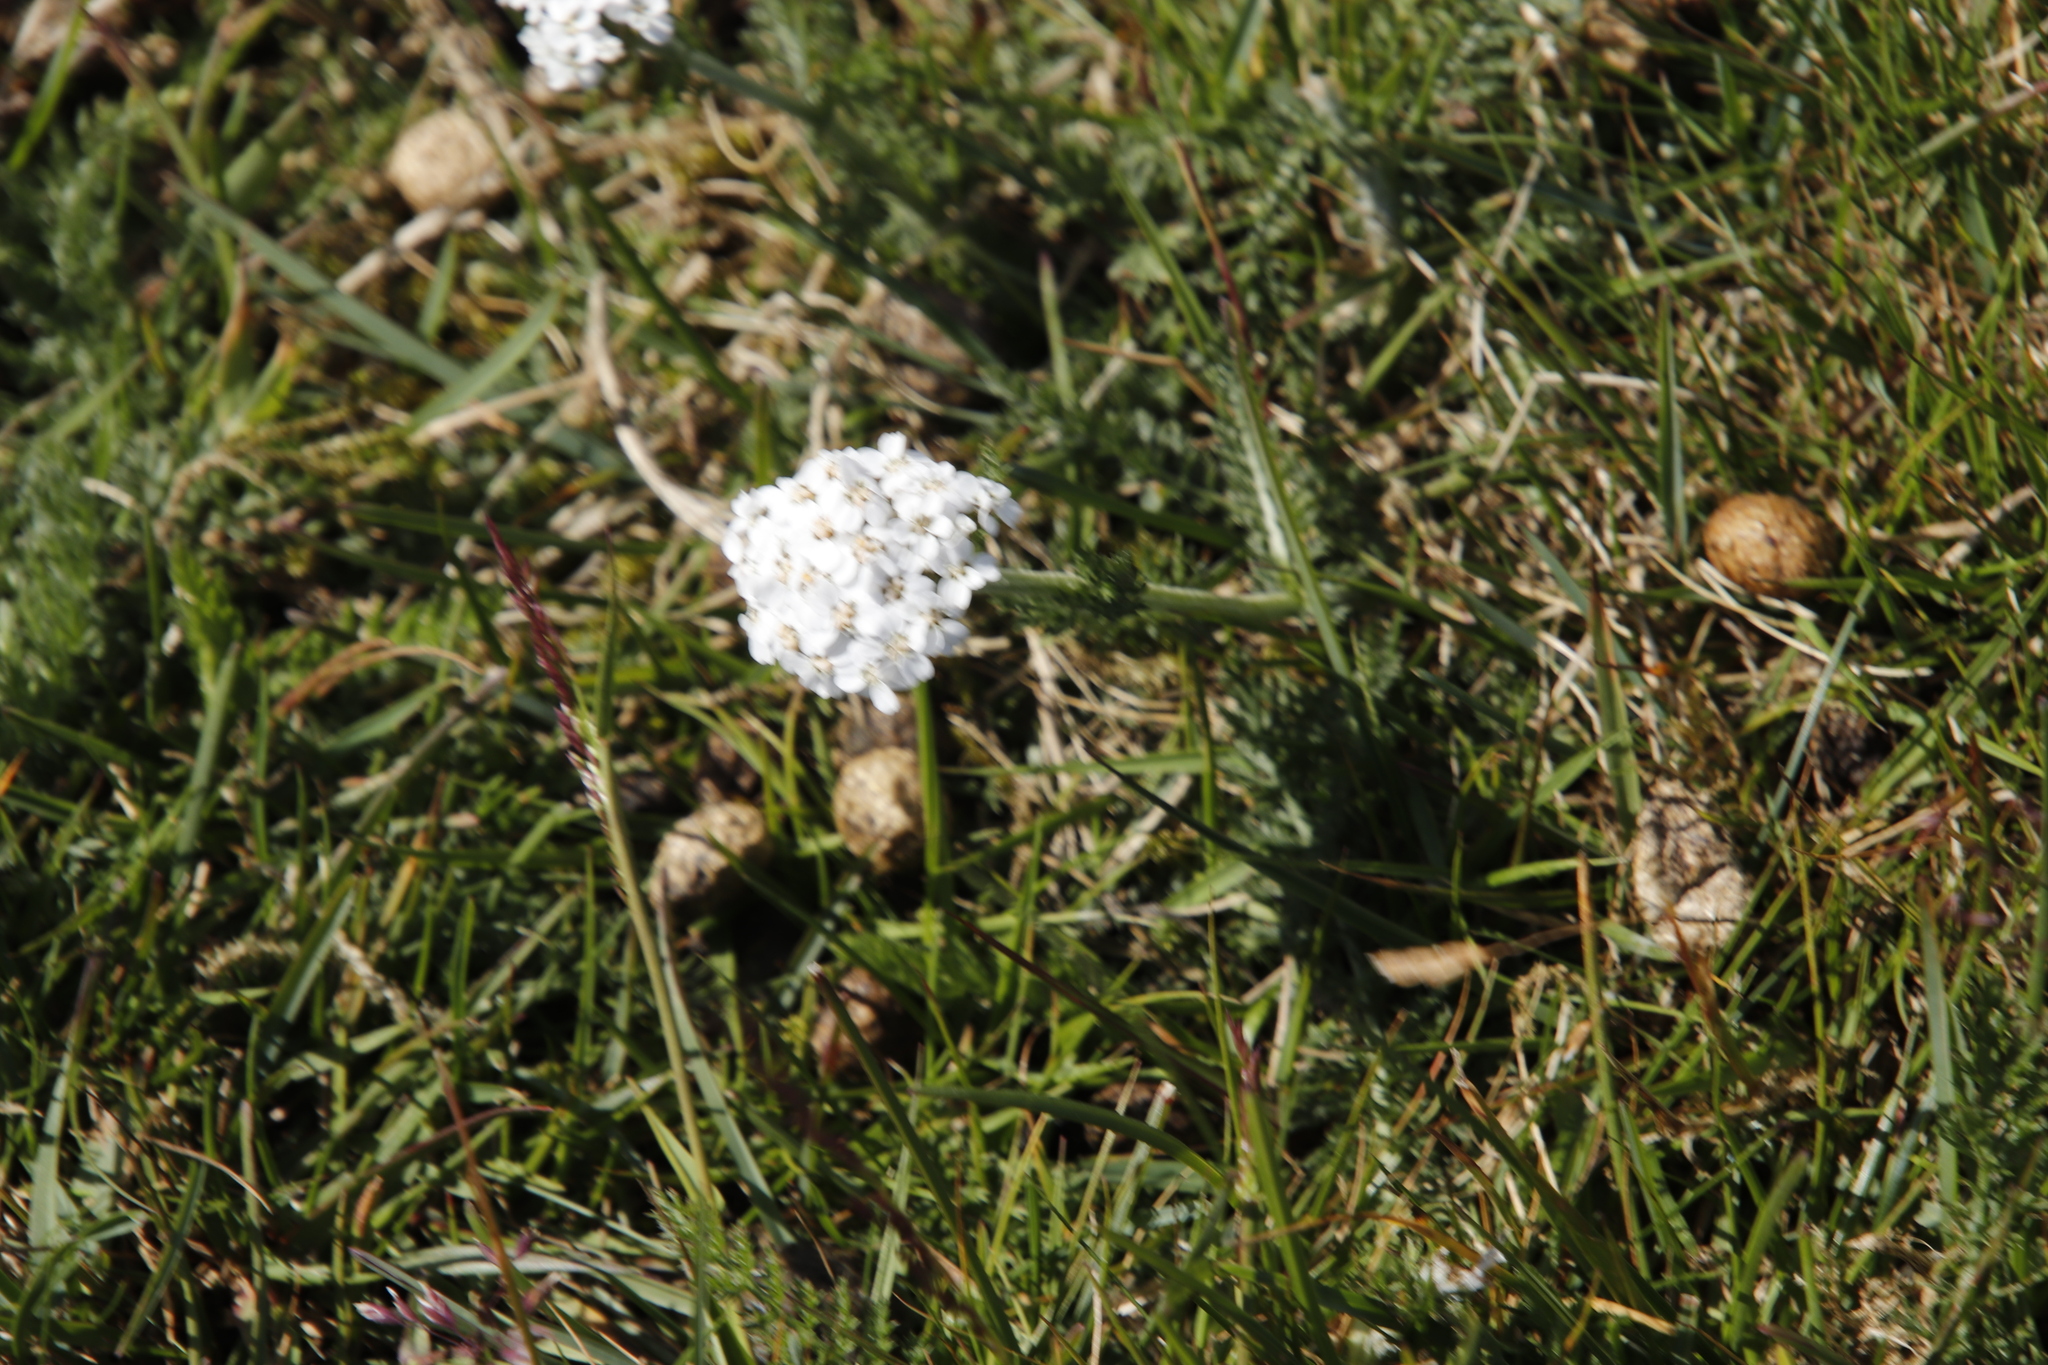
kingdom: Plantae
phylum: Tracheophyta
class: Magnoliopsida
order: Asterales
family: Asteraceae
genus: Achillea
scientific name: Achillea millefolium
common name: Yarrow
